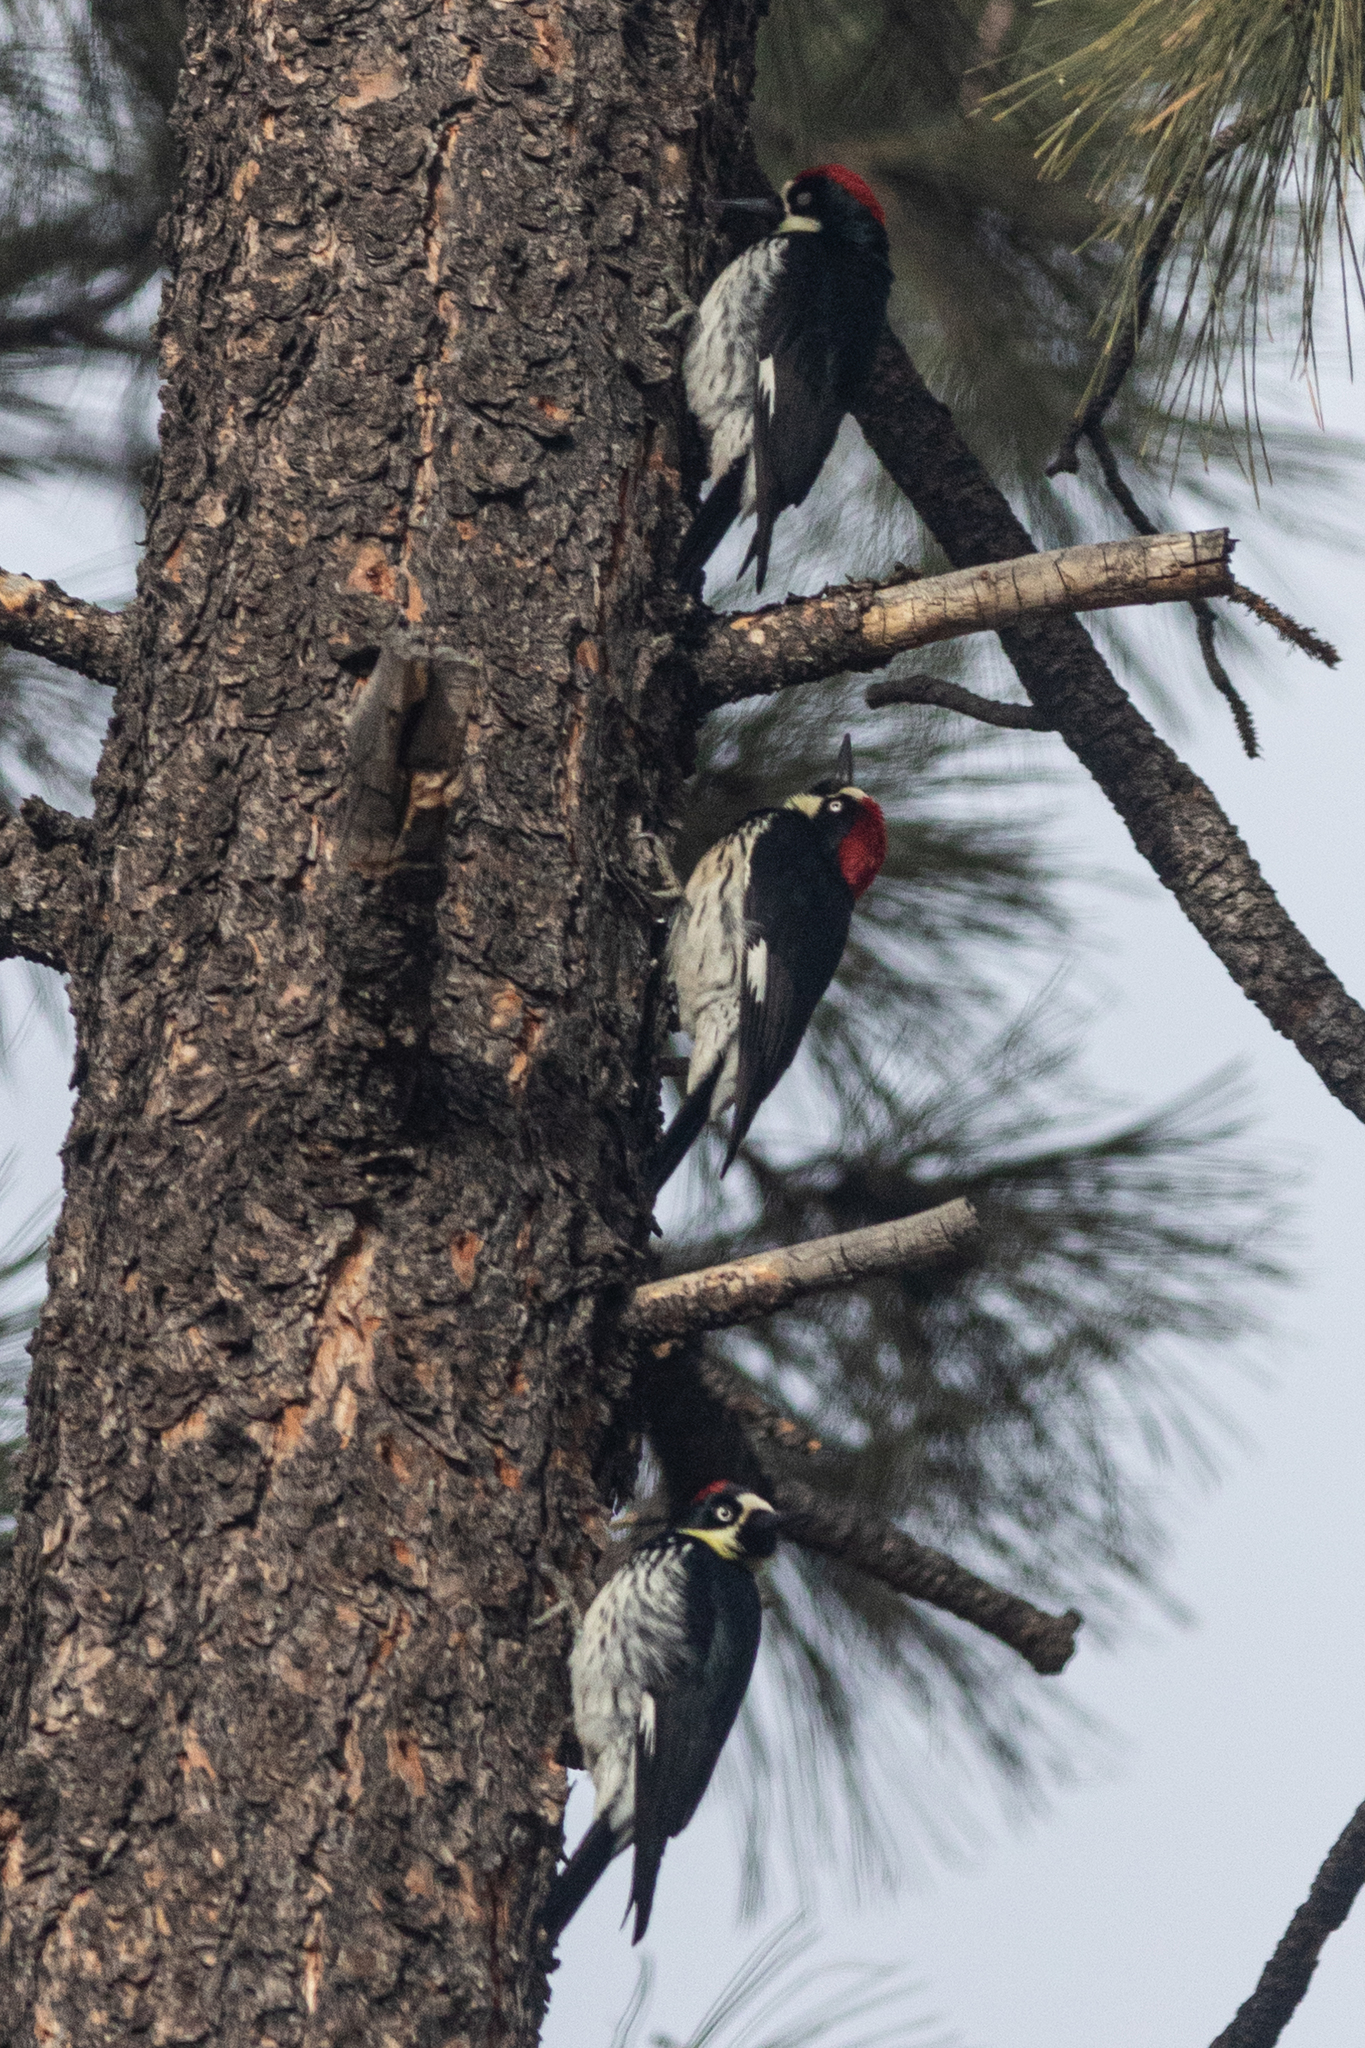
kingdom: Animalia
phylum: Chordata
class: Aves
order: Piciformes
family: Picidae
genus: Melanerpes
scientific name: Melanerpes formicivorus
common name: Acorn woodpecker
